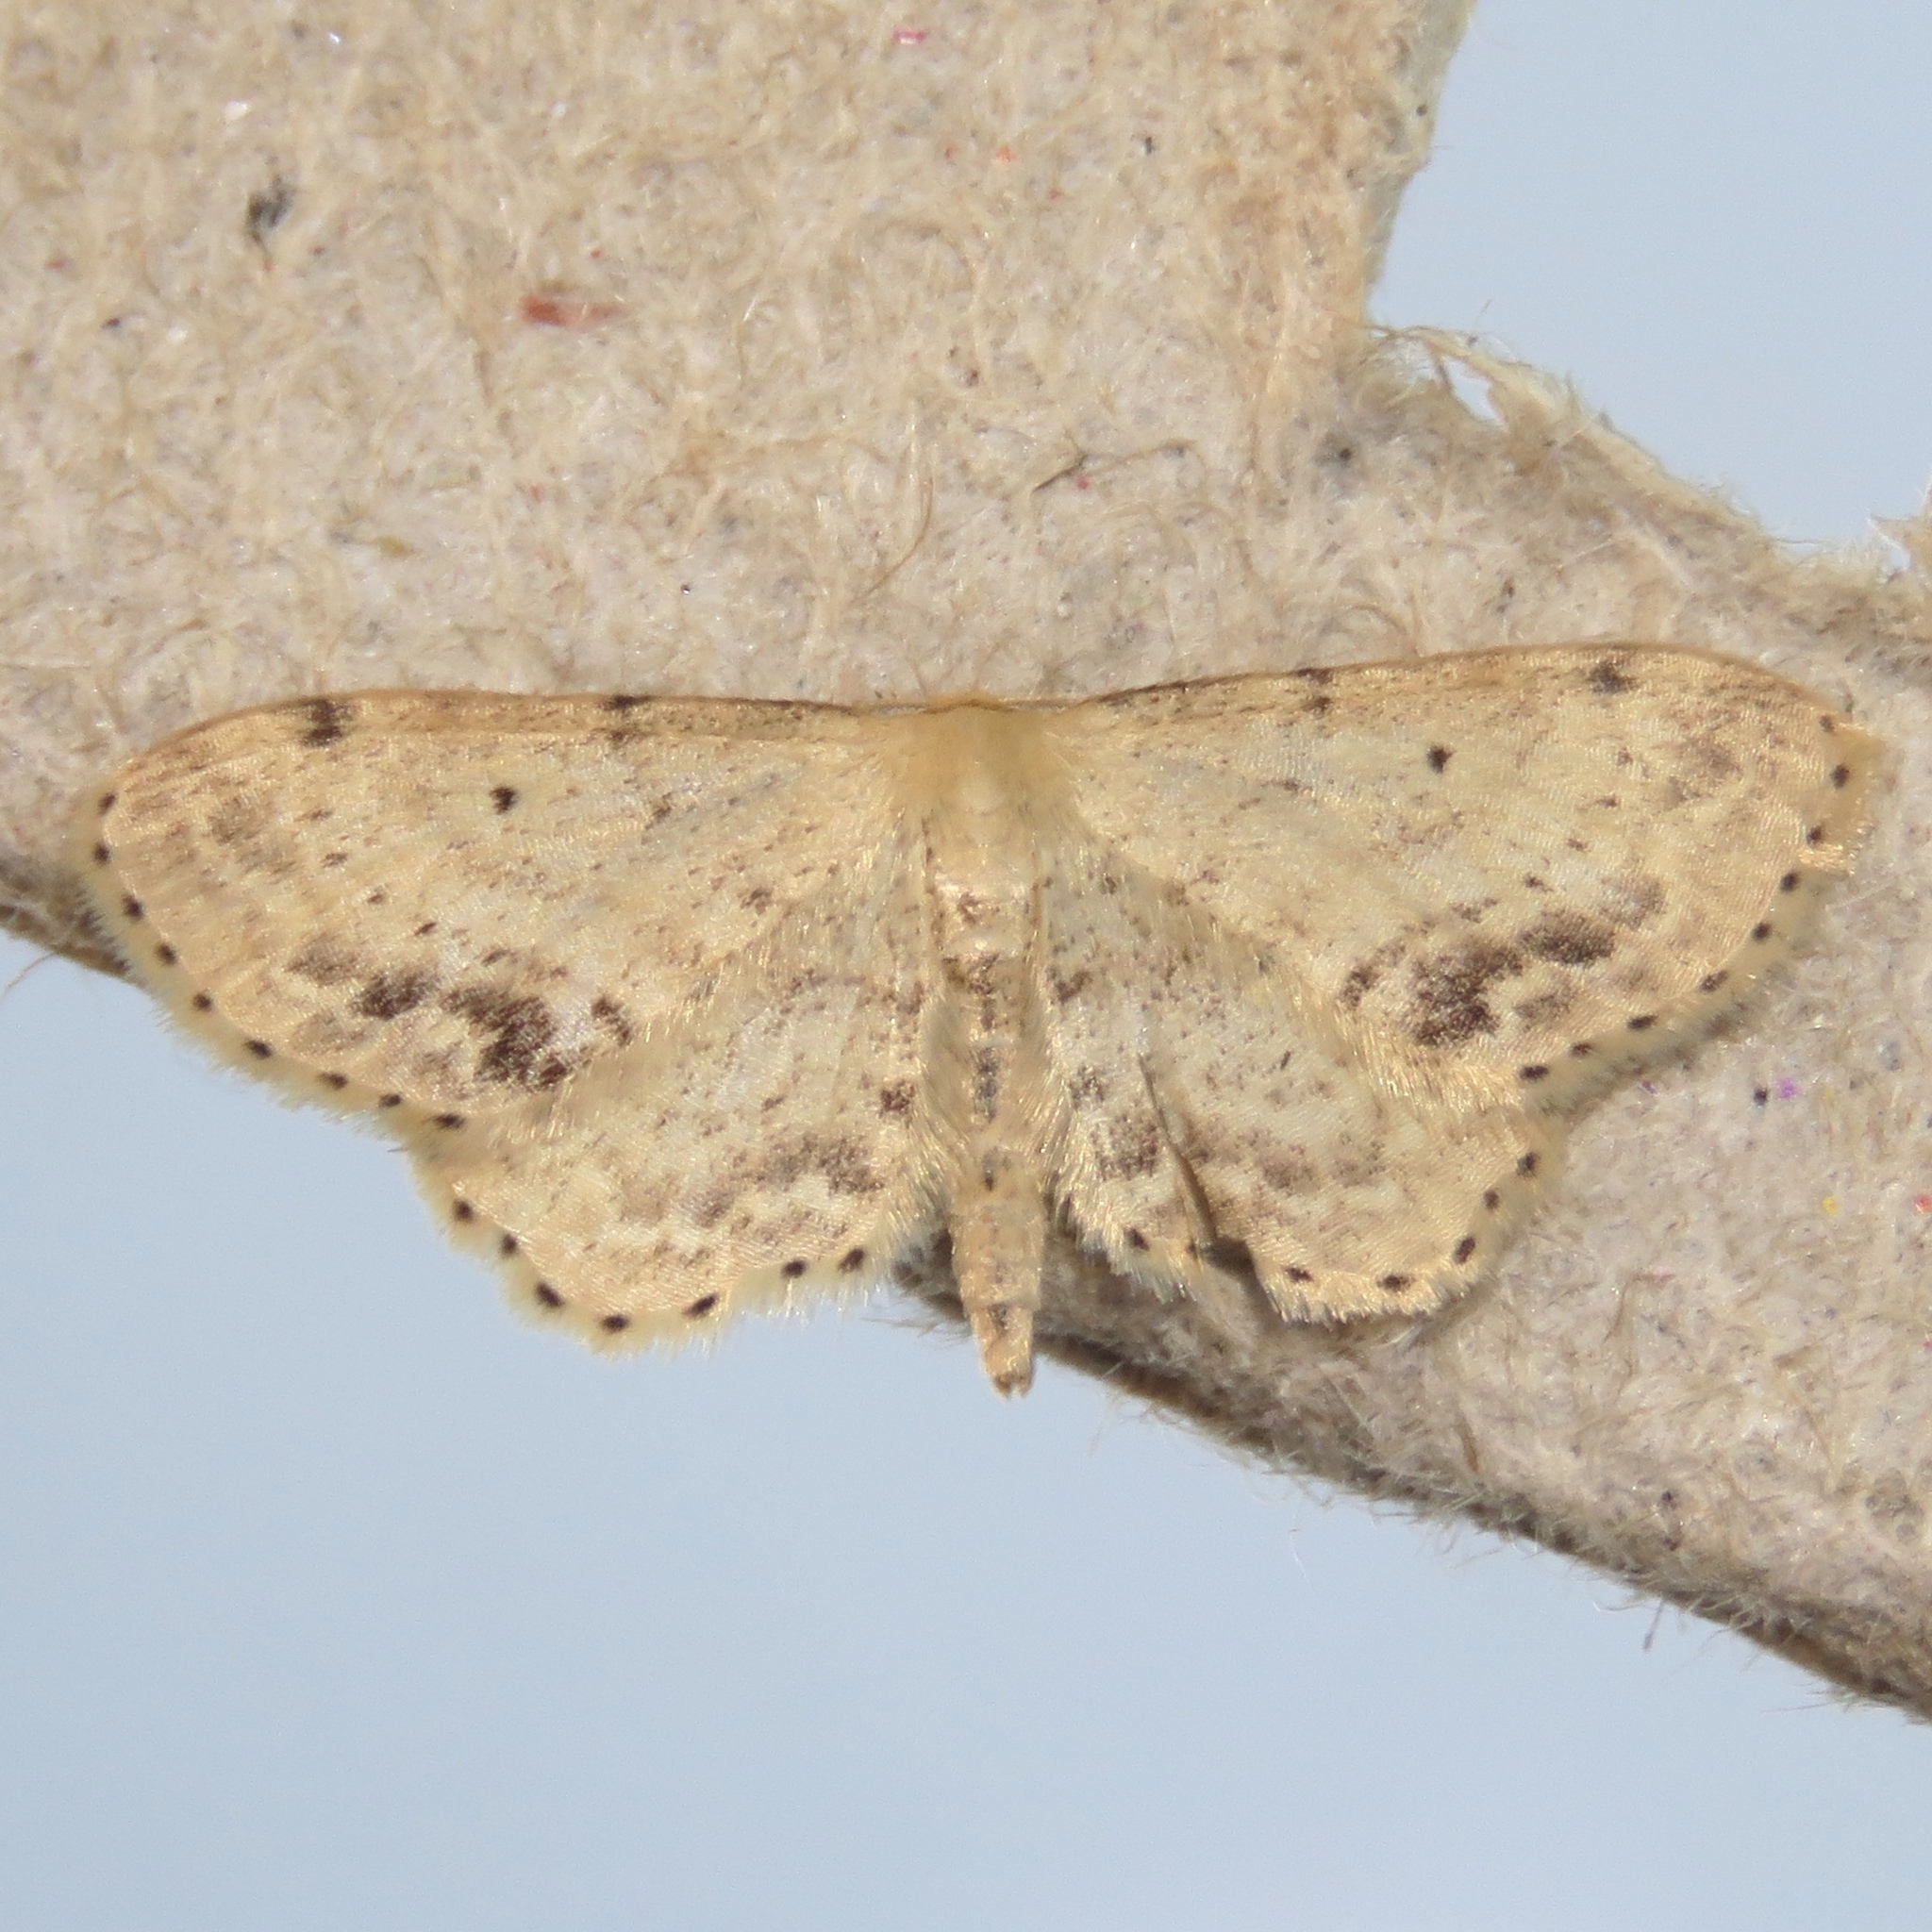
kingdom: Animalia
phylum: Arthropoda
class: Insecta
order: Lepidoptera
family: Geometridae
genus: Idaea
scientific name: Idaea dimidiata
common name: Single-dotted wave
